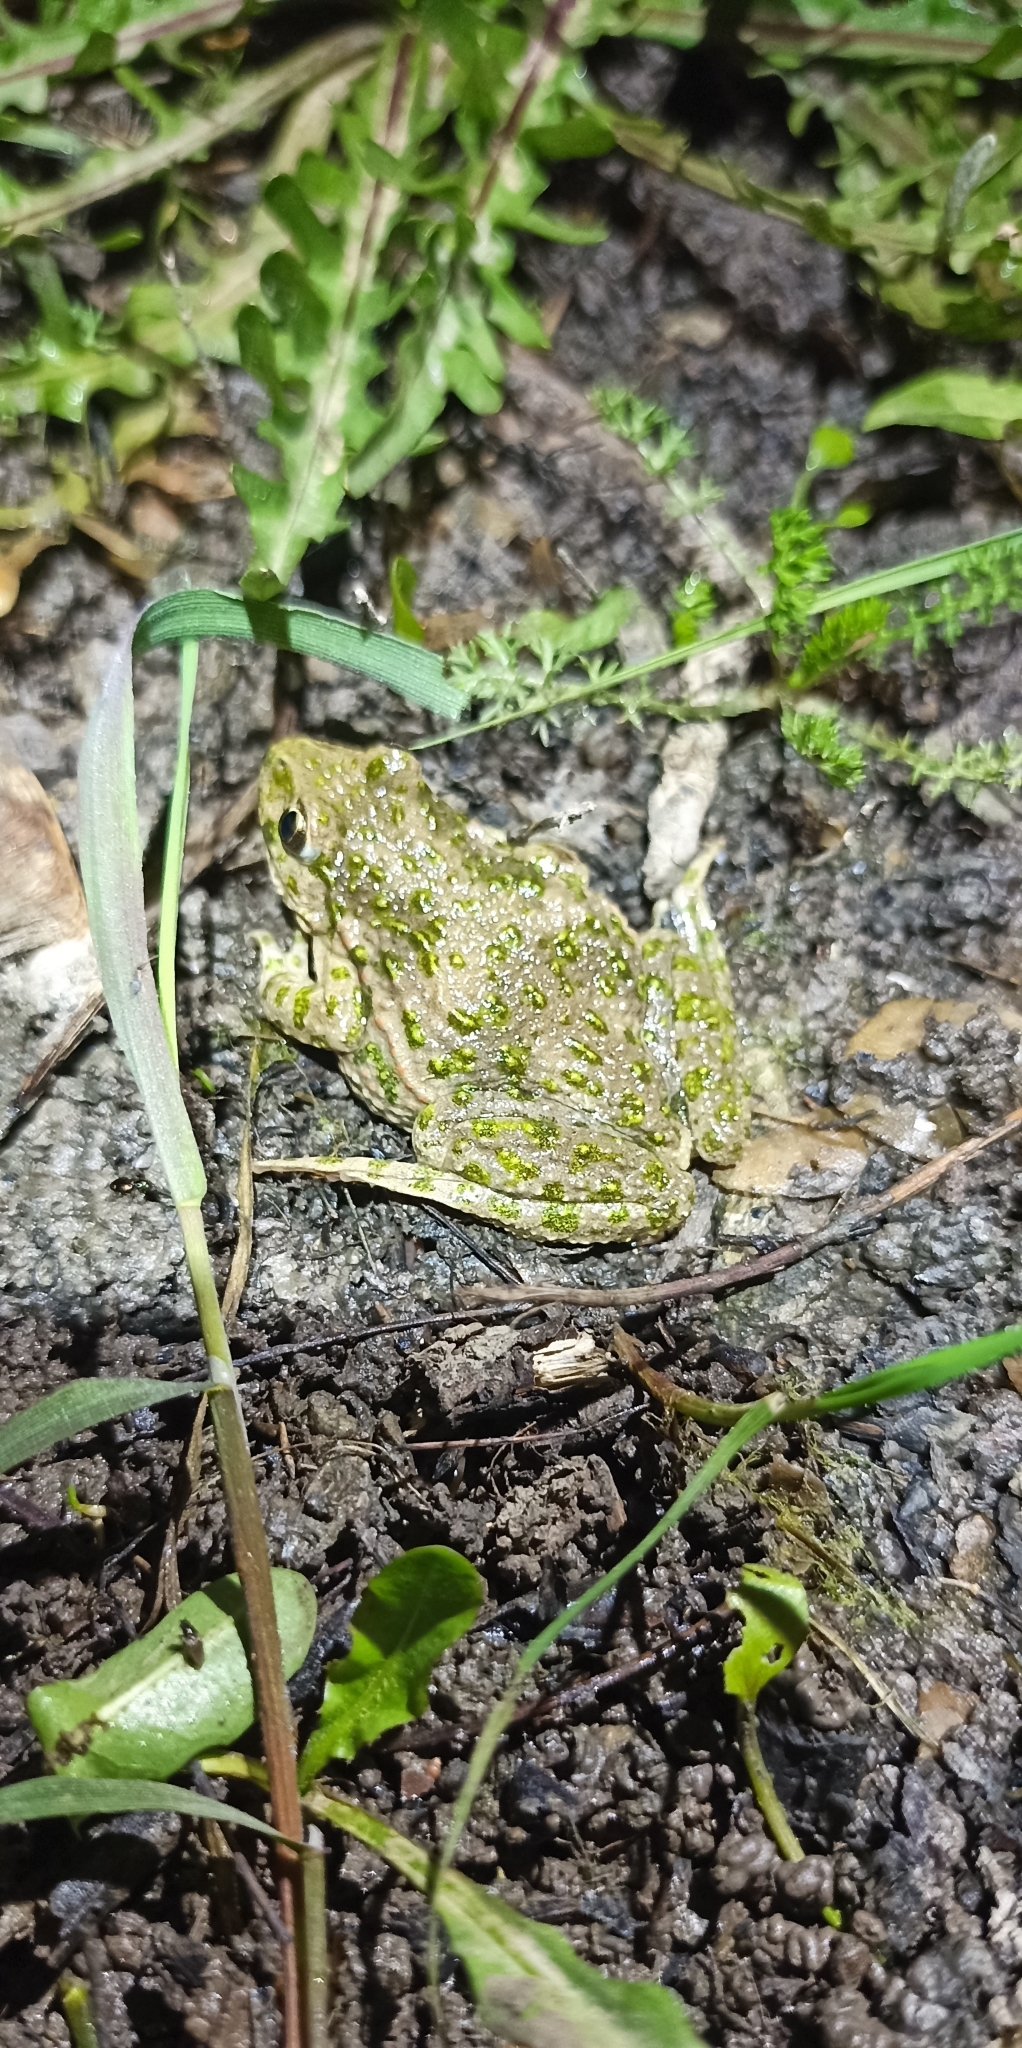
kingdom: Animalia
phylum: Chordata
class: Amphibia
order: Anura
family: Pelodytidae
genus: Pelodytes
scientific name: Pelodytes punctatus
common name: Parsley frog
